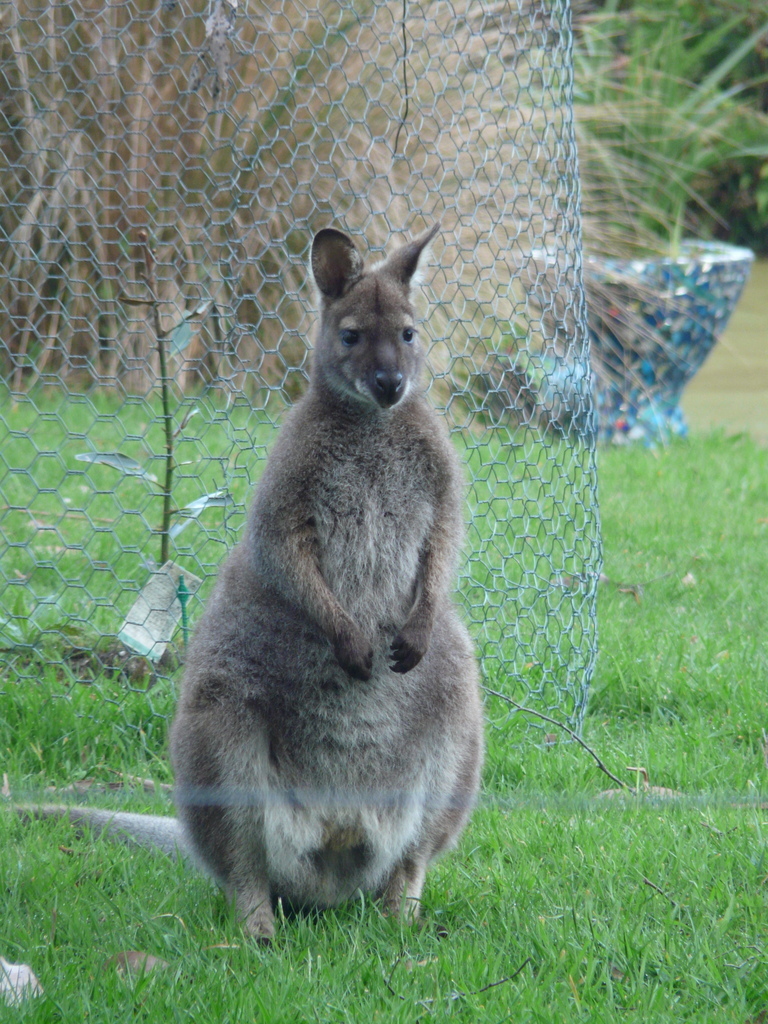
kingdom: Animalia
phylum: Chordata
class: Mammalia
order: Diprotodontia
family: Macropodidae
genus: Notamacropus
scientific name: Notamacropus rufogriseus
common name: Red-necked wallaby
